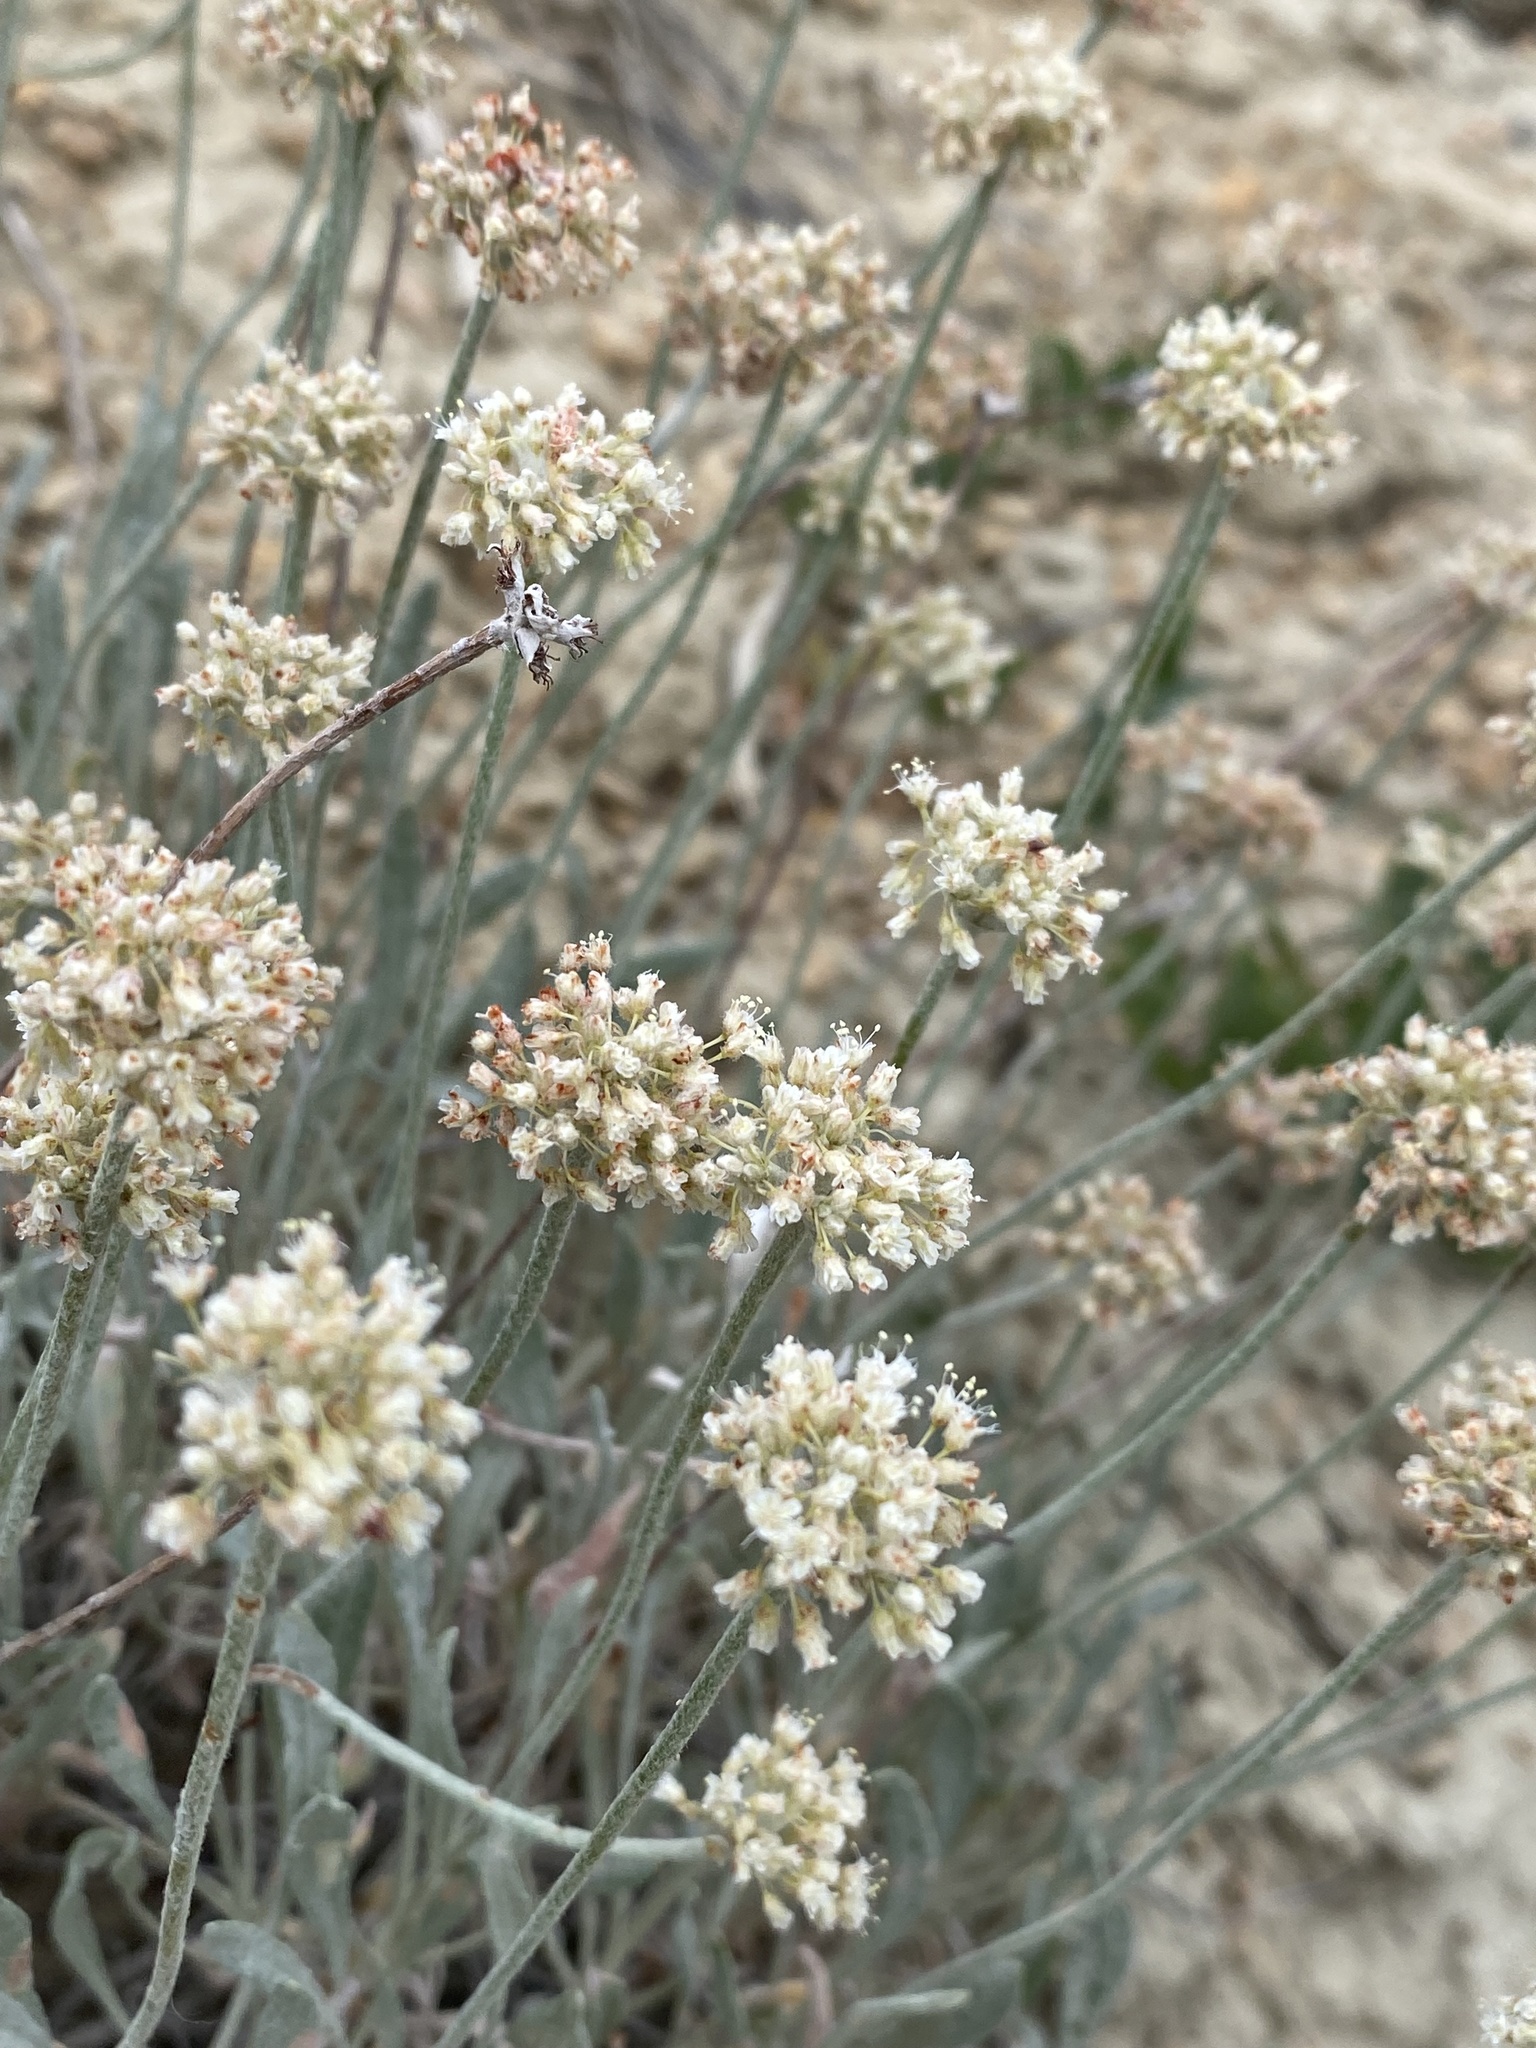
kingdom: Plantae
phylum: Tracheophyta
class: Magnoliopsida
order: Caryophyllales
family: Polygonaceae
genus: Eriogonum
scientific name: Eriogonum pauciflorum
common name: Few-flower wild buckwheat
